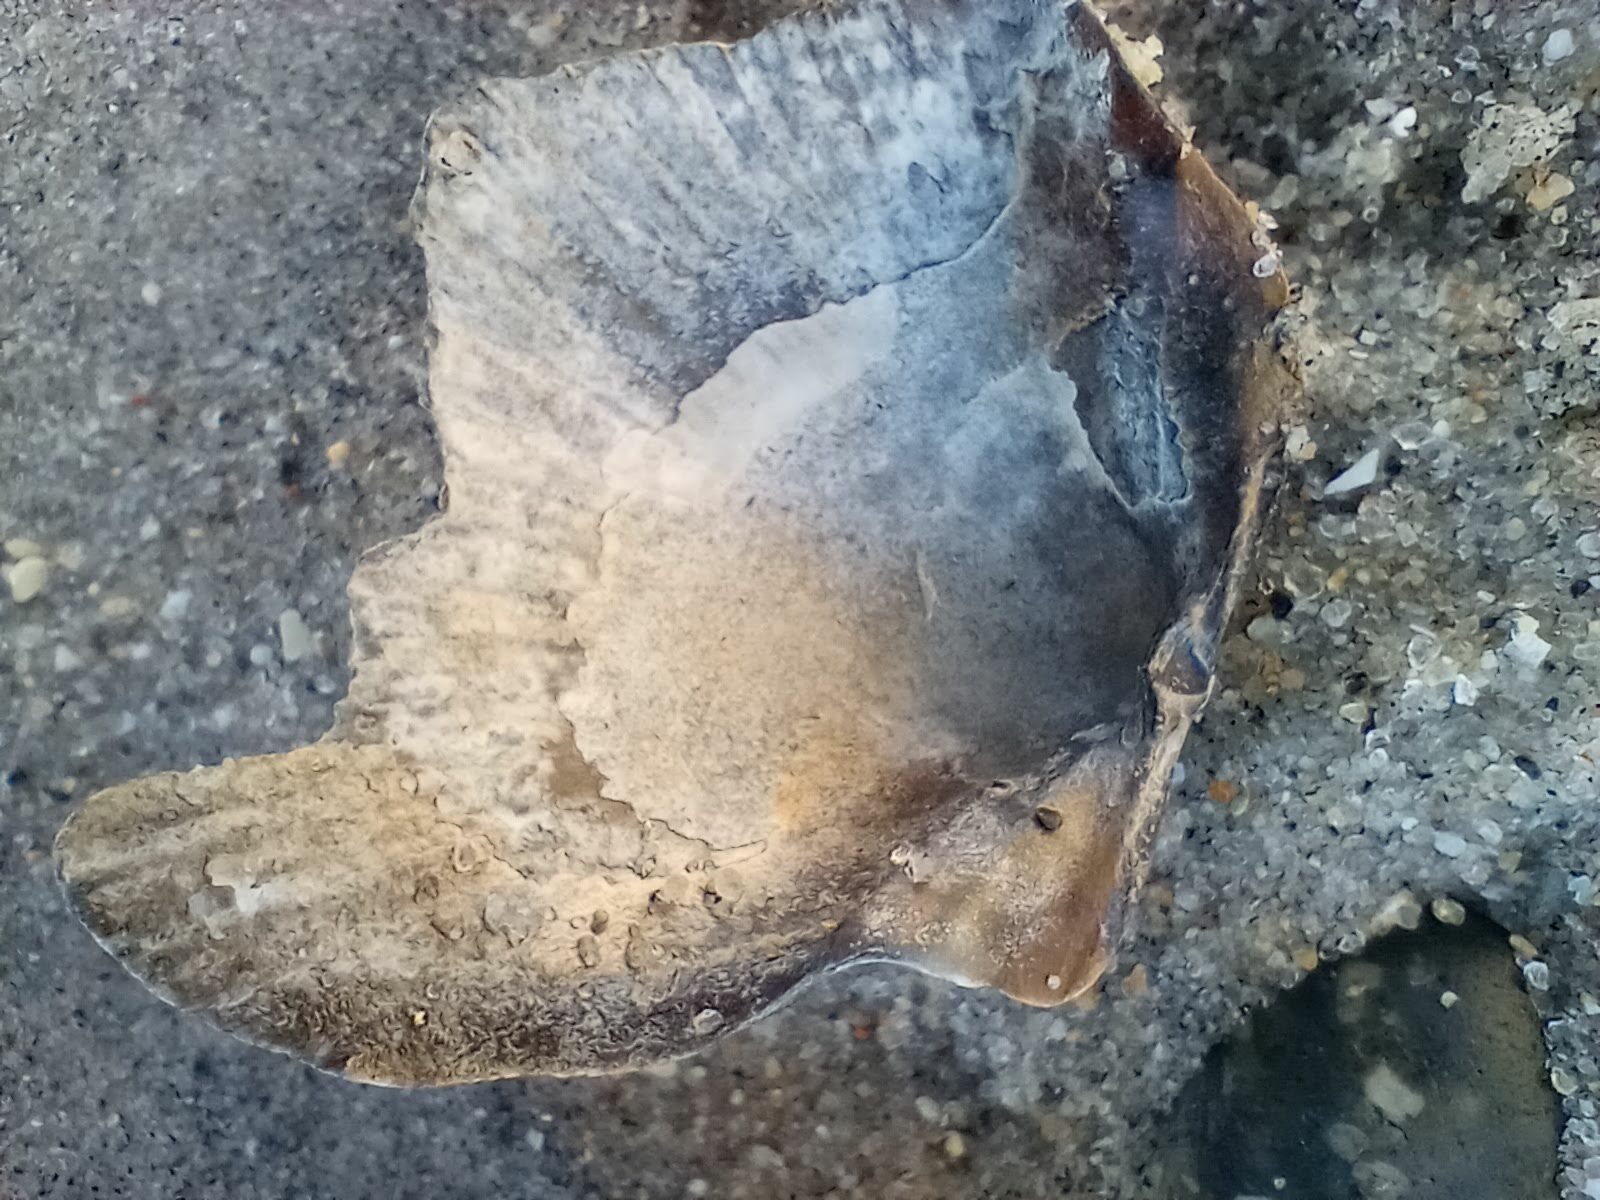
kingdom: Animalia
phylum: Mollusca
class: Bivalvia
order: Pectinida
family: Pectinidae
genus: Argopecten
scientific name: Argopecten ventricosus
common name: Catarina scallop
